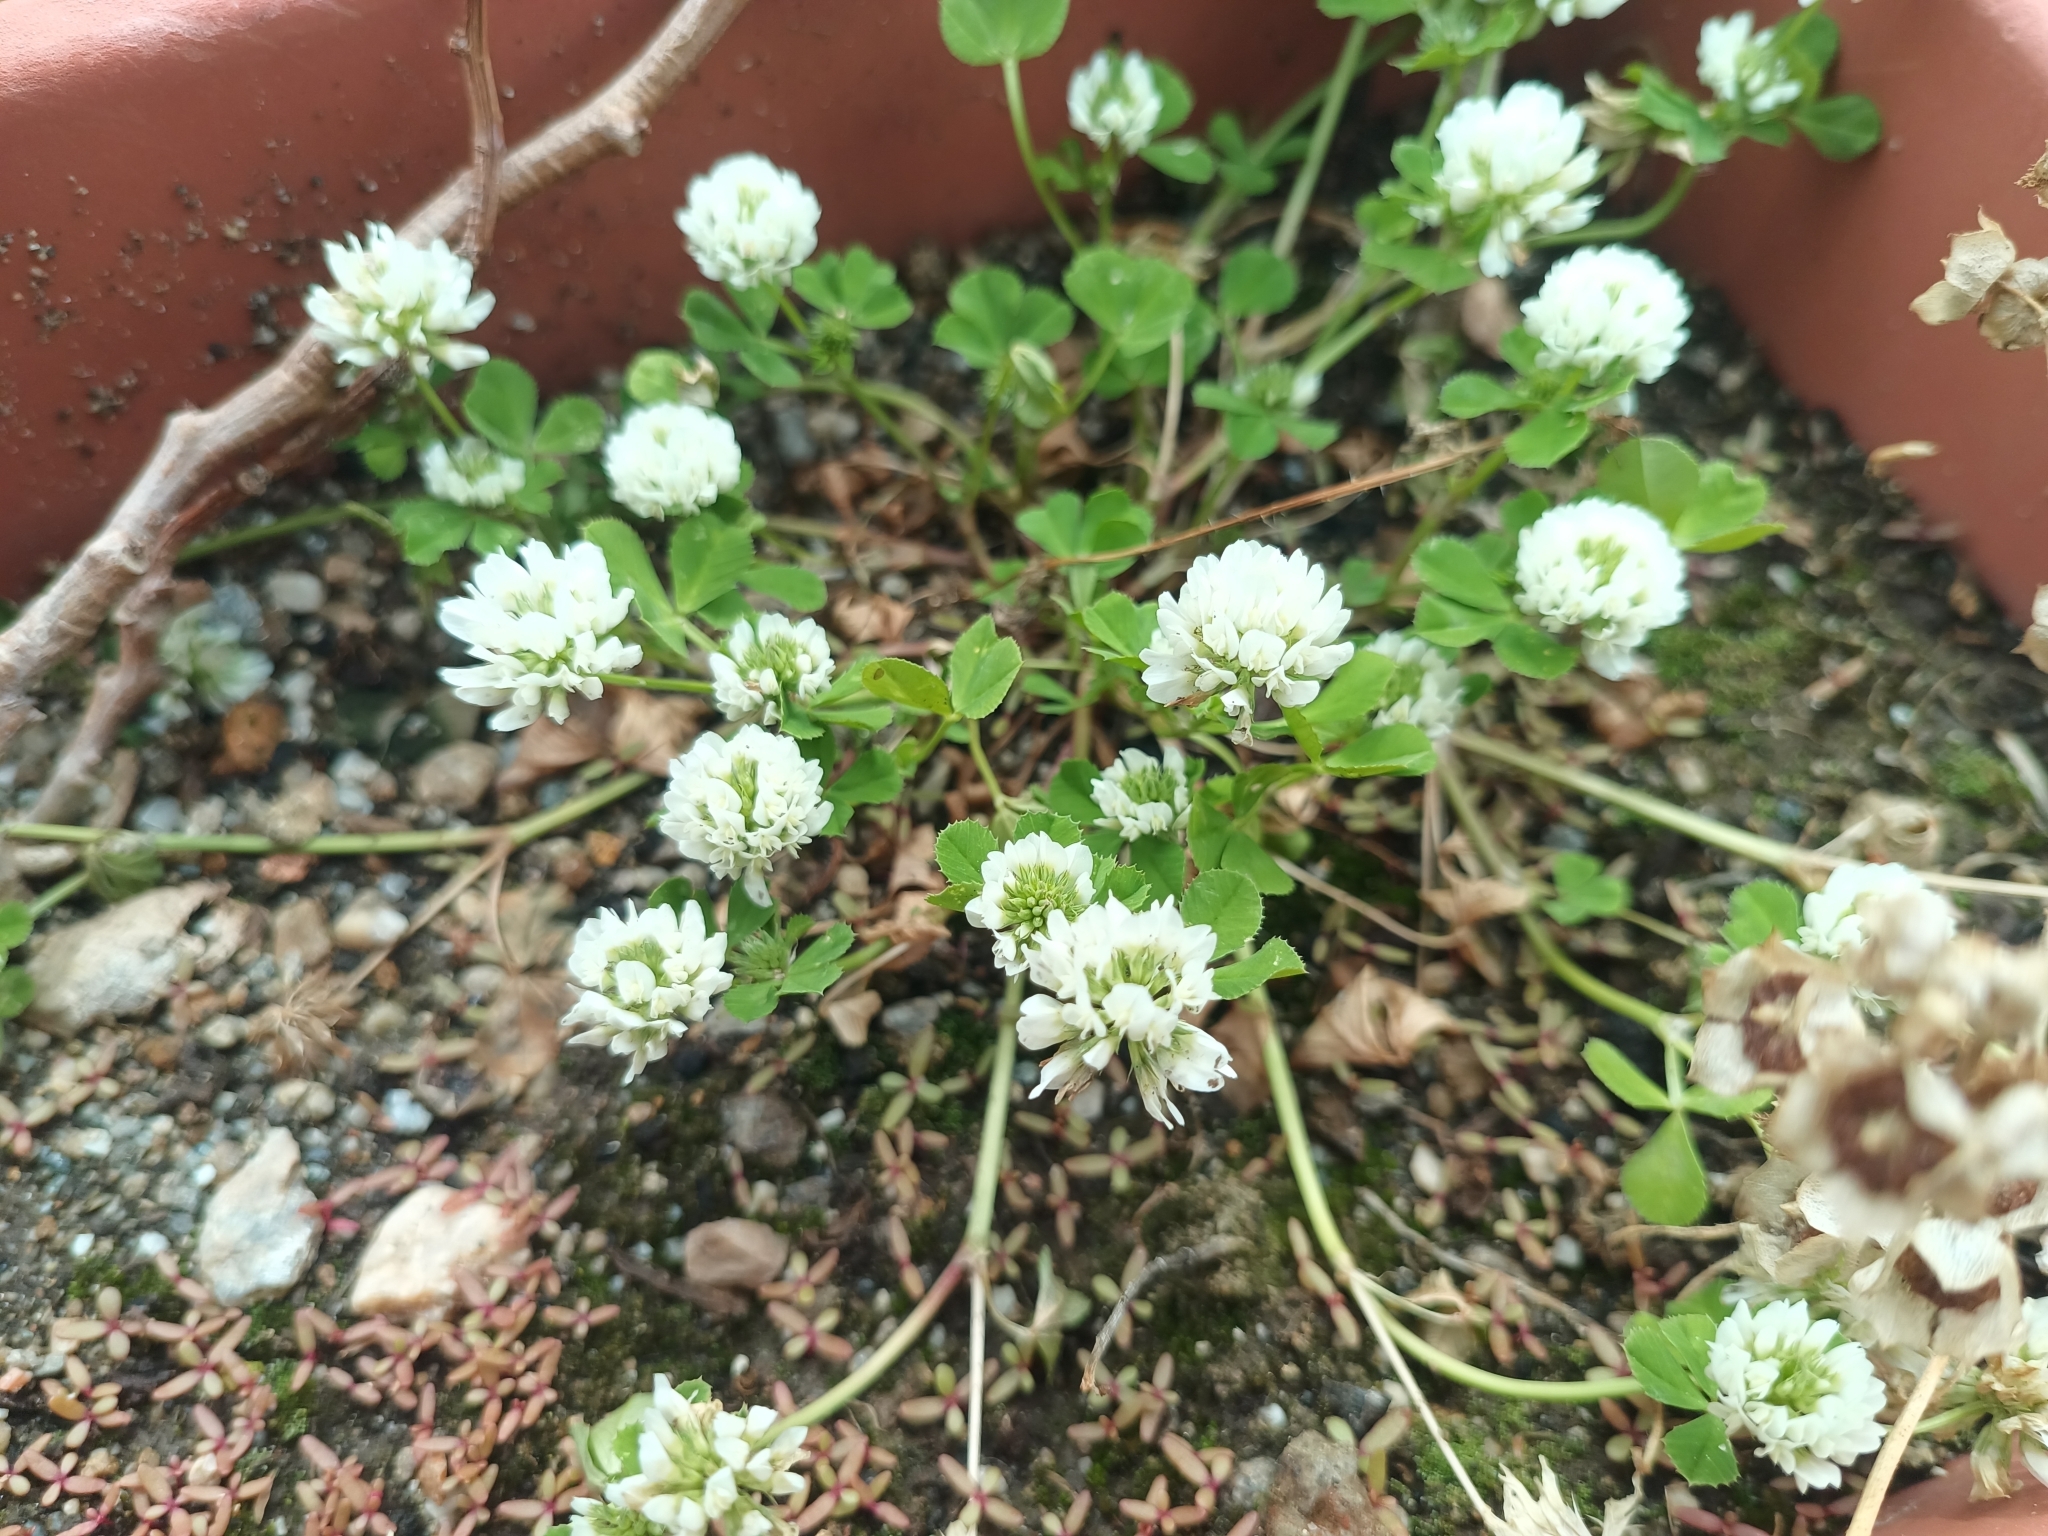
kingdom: Plantae
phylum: Tracheophyta
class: Magnoliopsida
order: Fabales
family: Fabaceae
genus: Trifolium
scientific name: Trifolium nigrescens
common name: Small white clover
